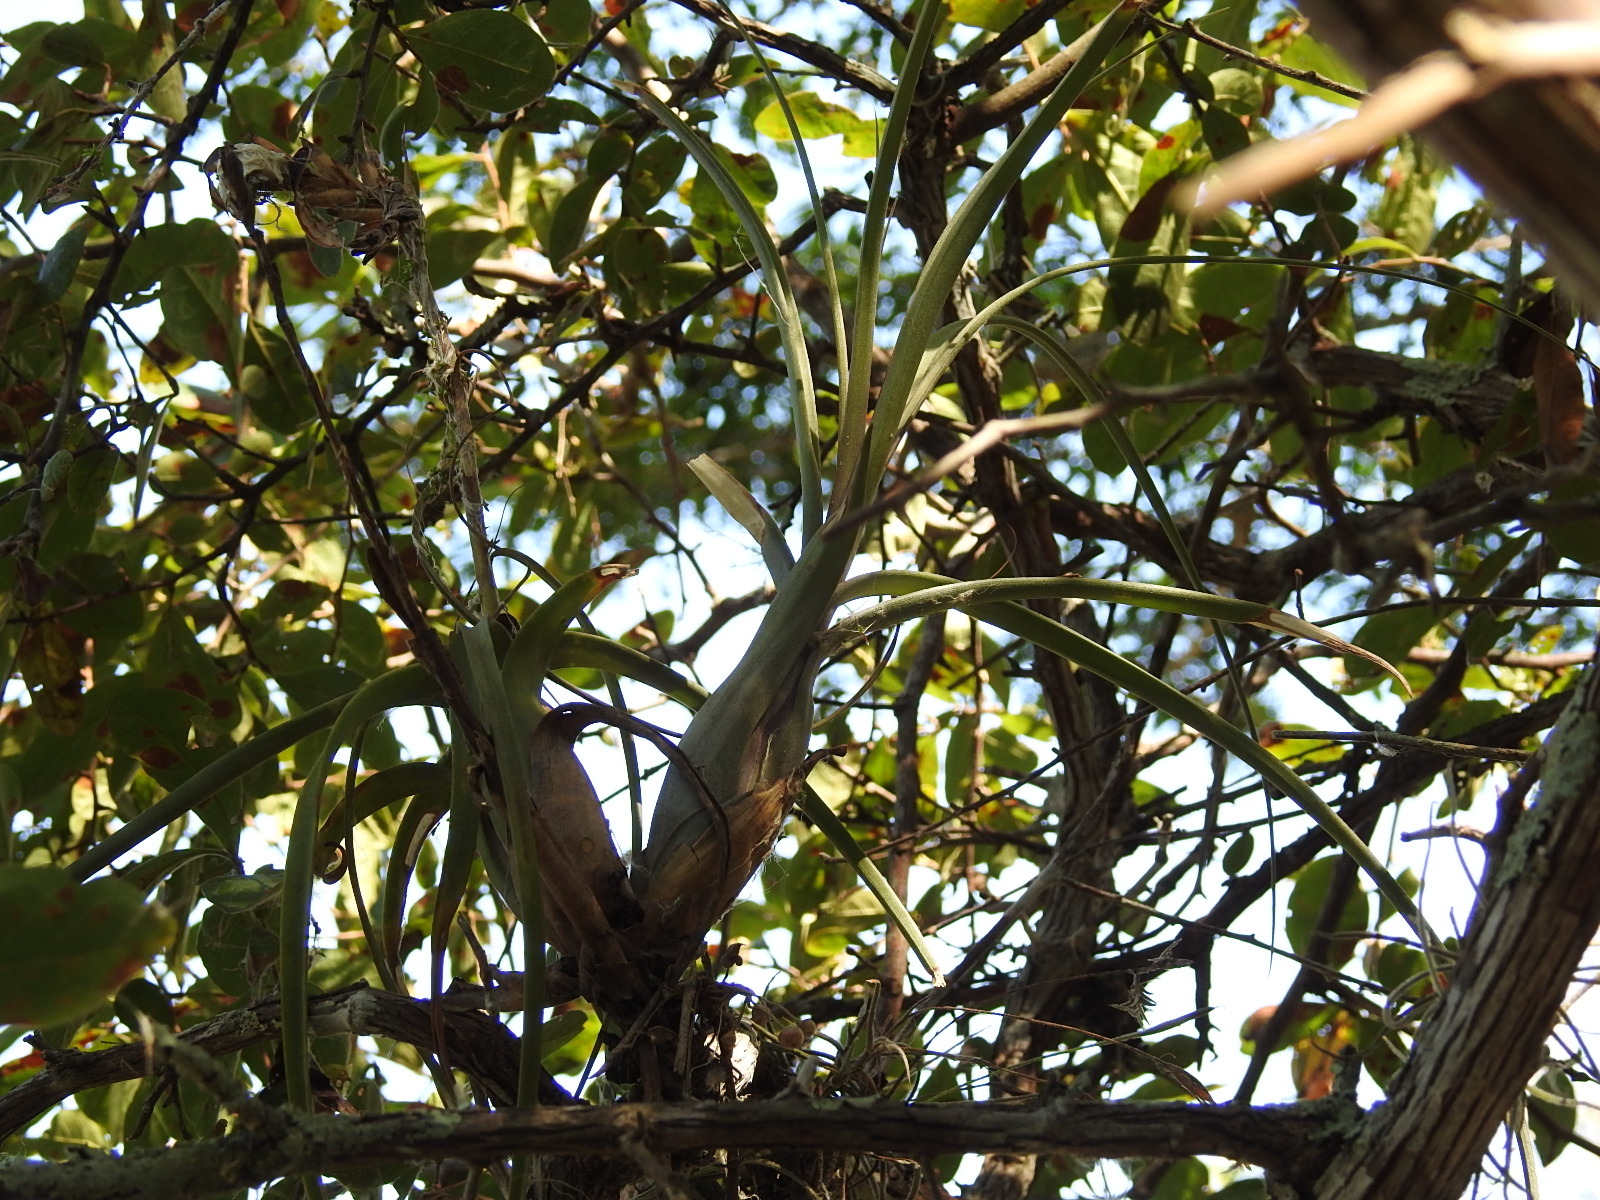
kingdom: Plantae
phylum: Tracheophyta
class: Liliopsida
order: Poales
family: Bromeliaceae
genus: Tillandsia
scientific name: Tillandsia balbisiana
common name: Northern needleleaf
